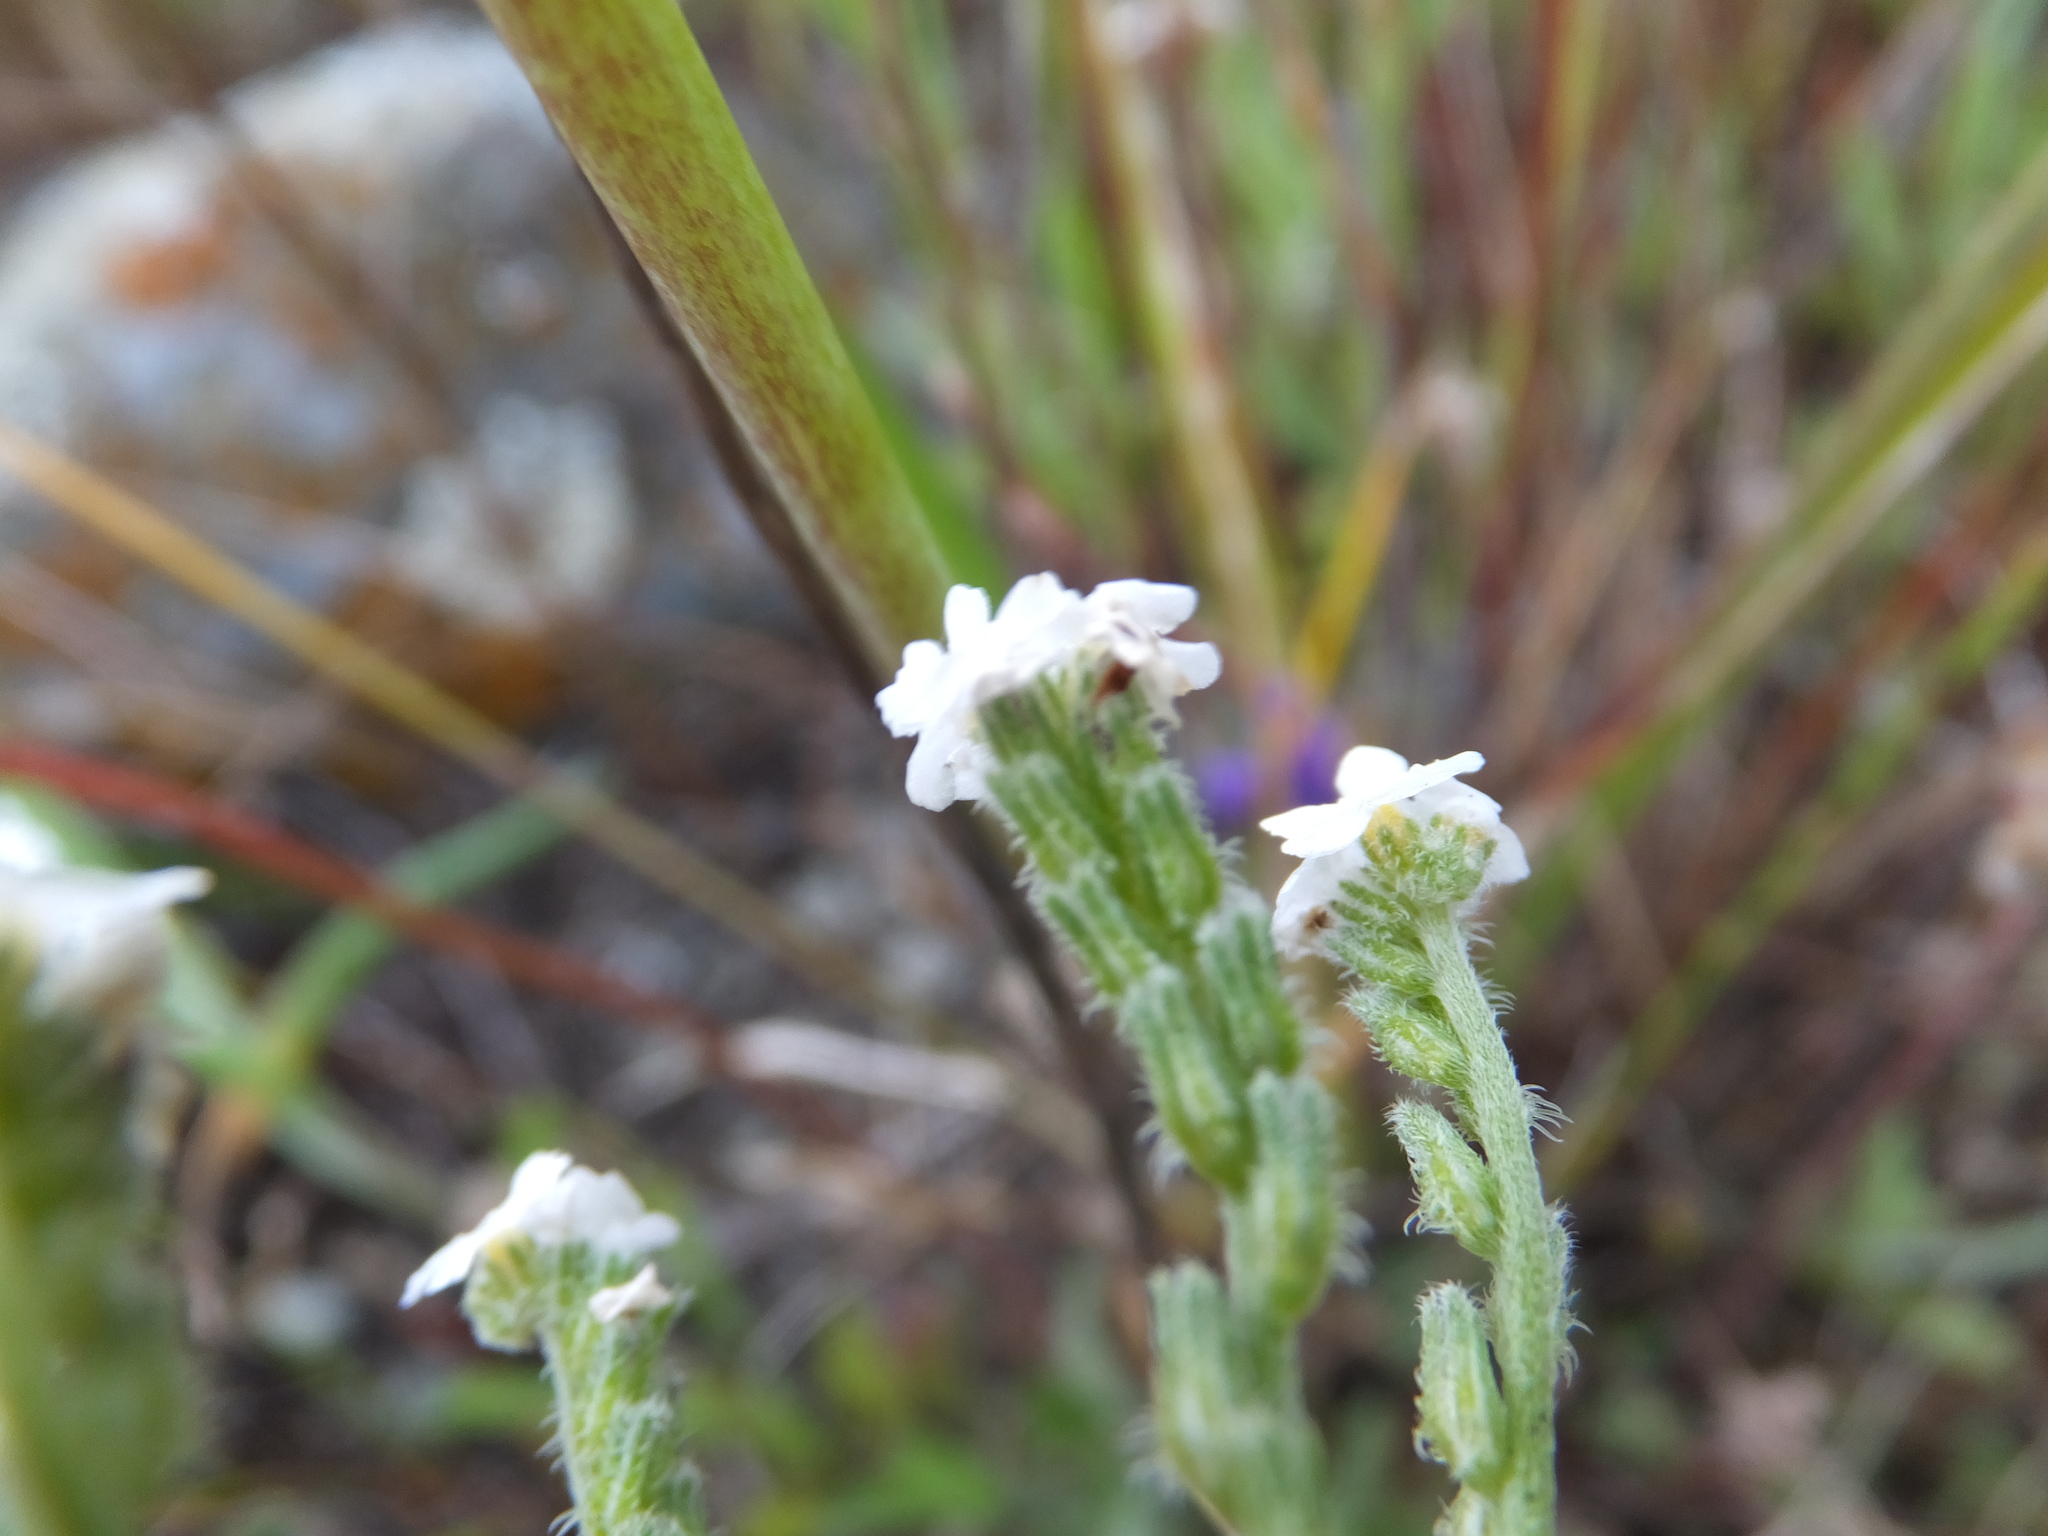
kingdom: Plantae
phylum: Tracheophyta
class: Magnoliopsida
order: Boraginales
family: Boraginaceae
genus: Cryptantha
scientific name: Cryptantha flaccida
